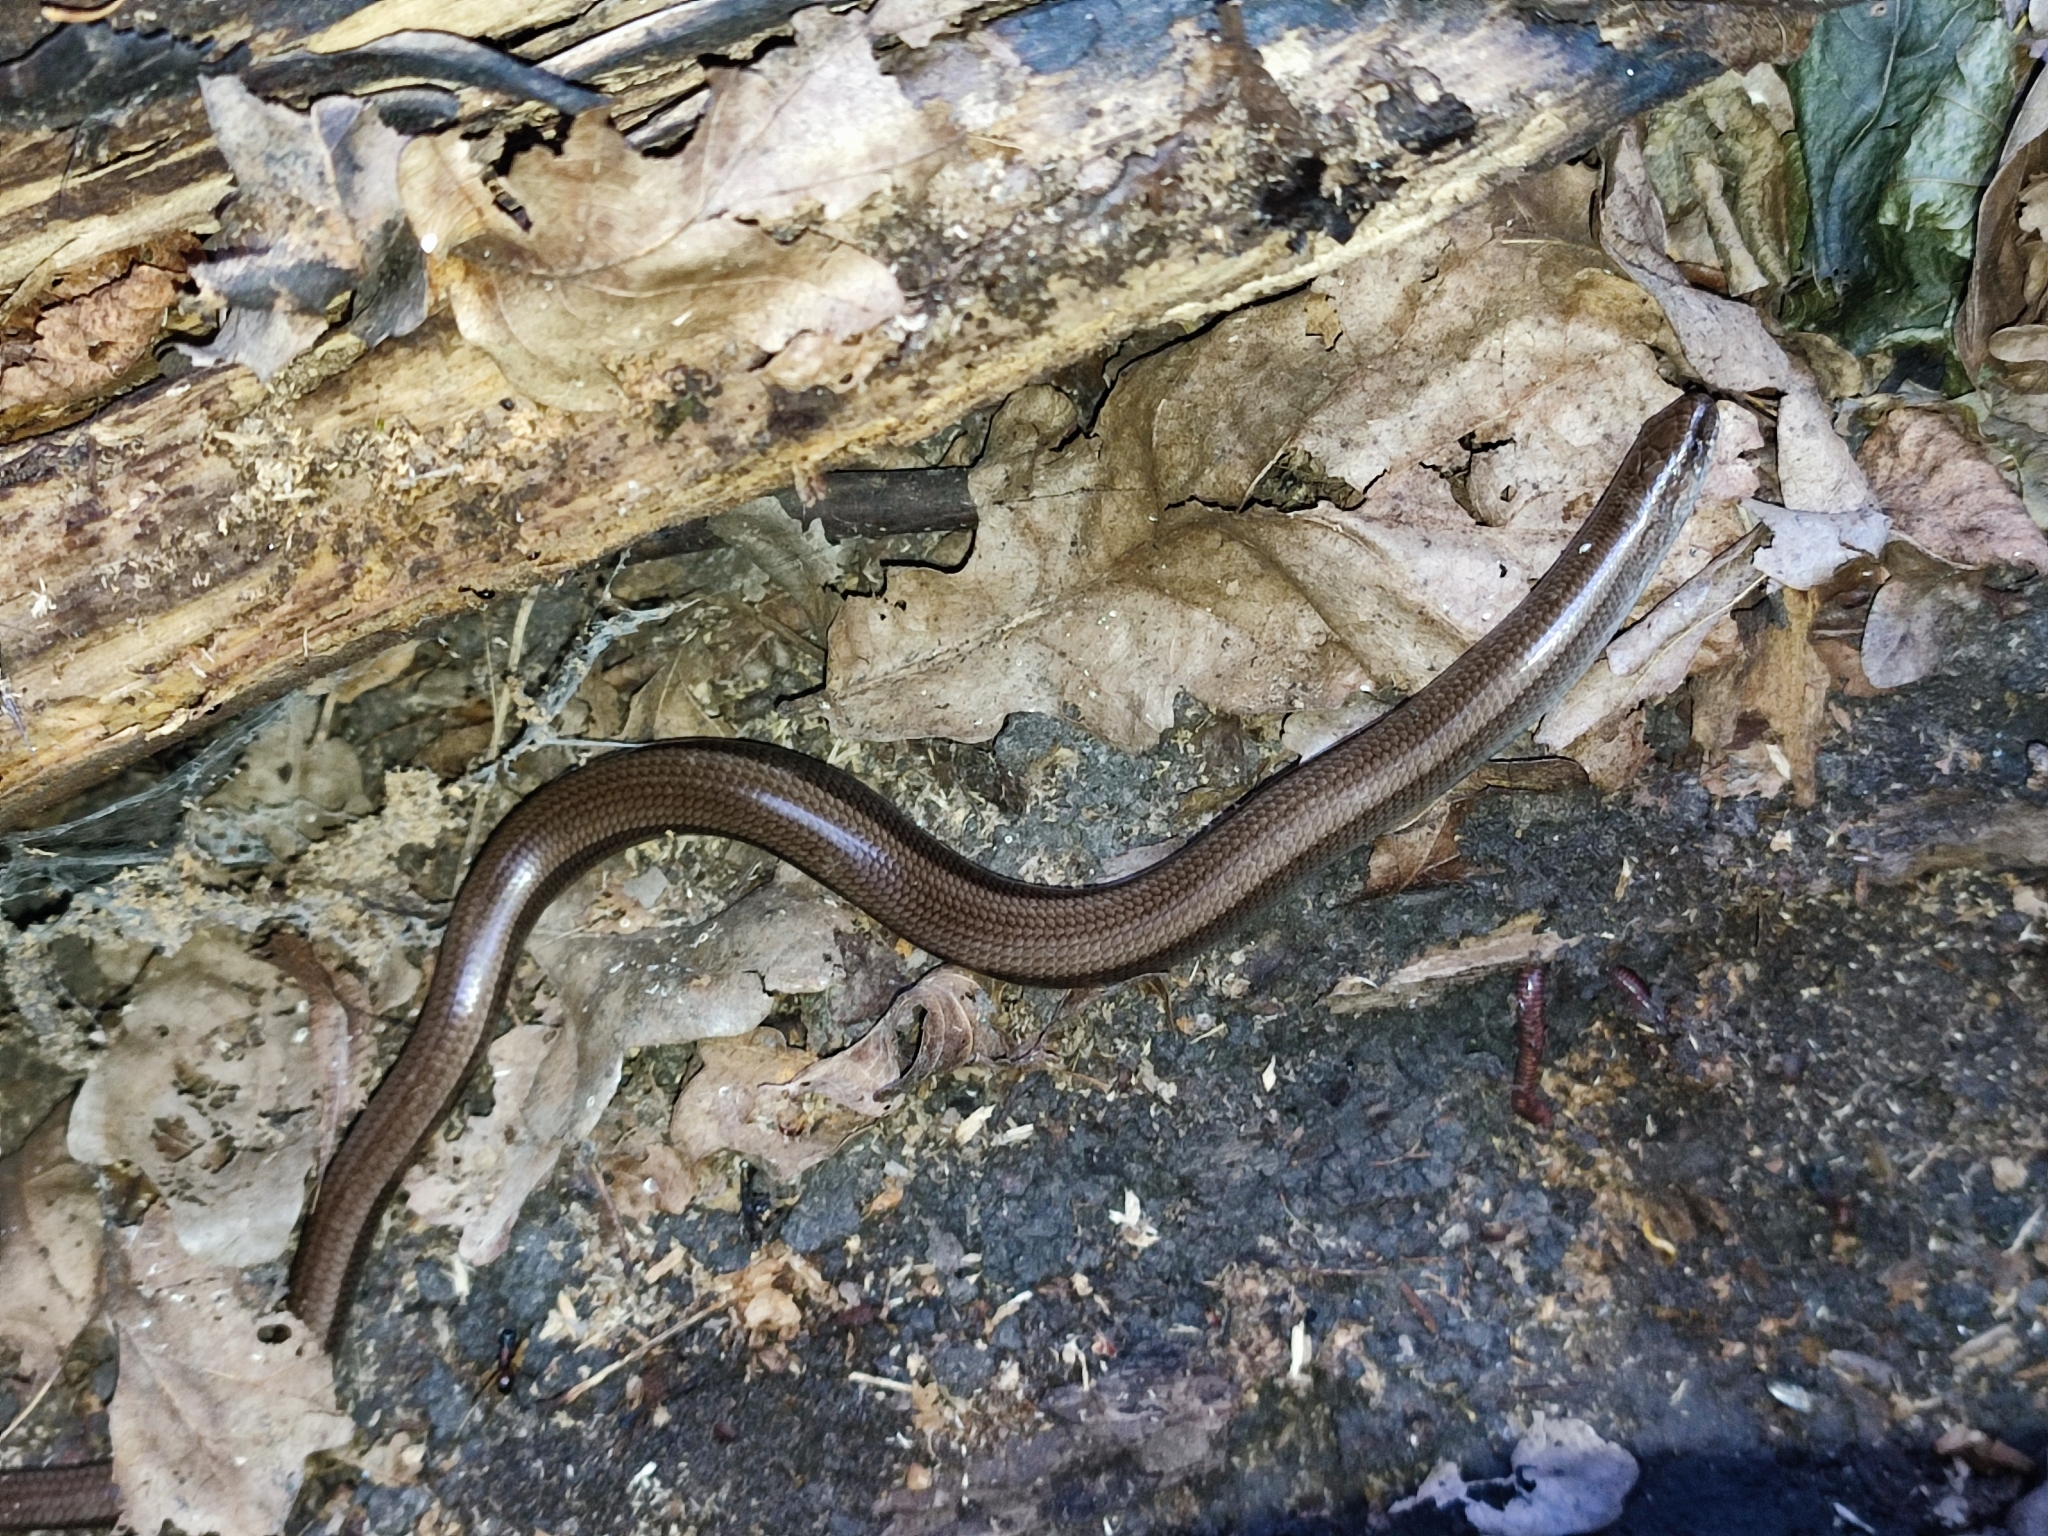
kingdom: Animalia
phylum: Chordata
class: Squamata
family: Anguidae
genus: Anguis
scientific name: Anguis colchica
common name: Slow worm
